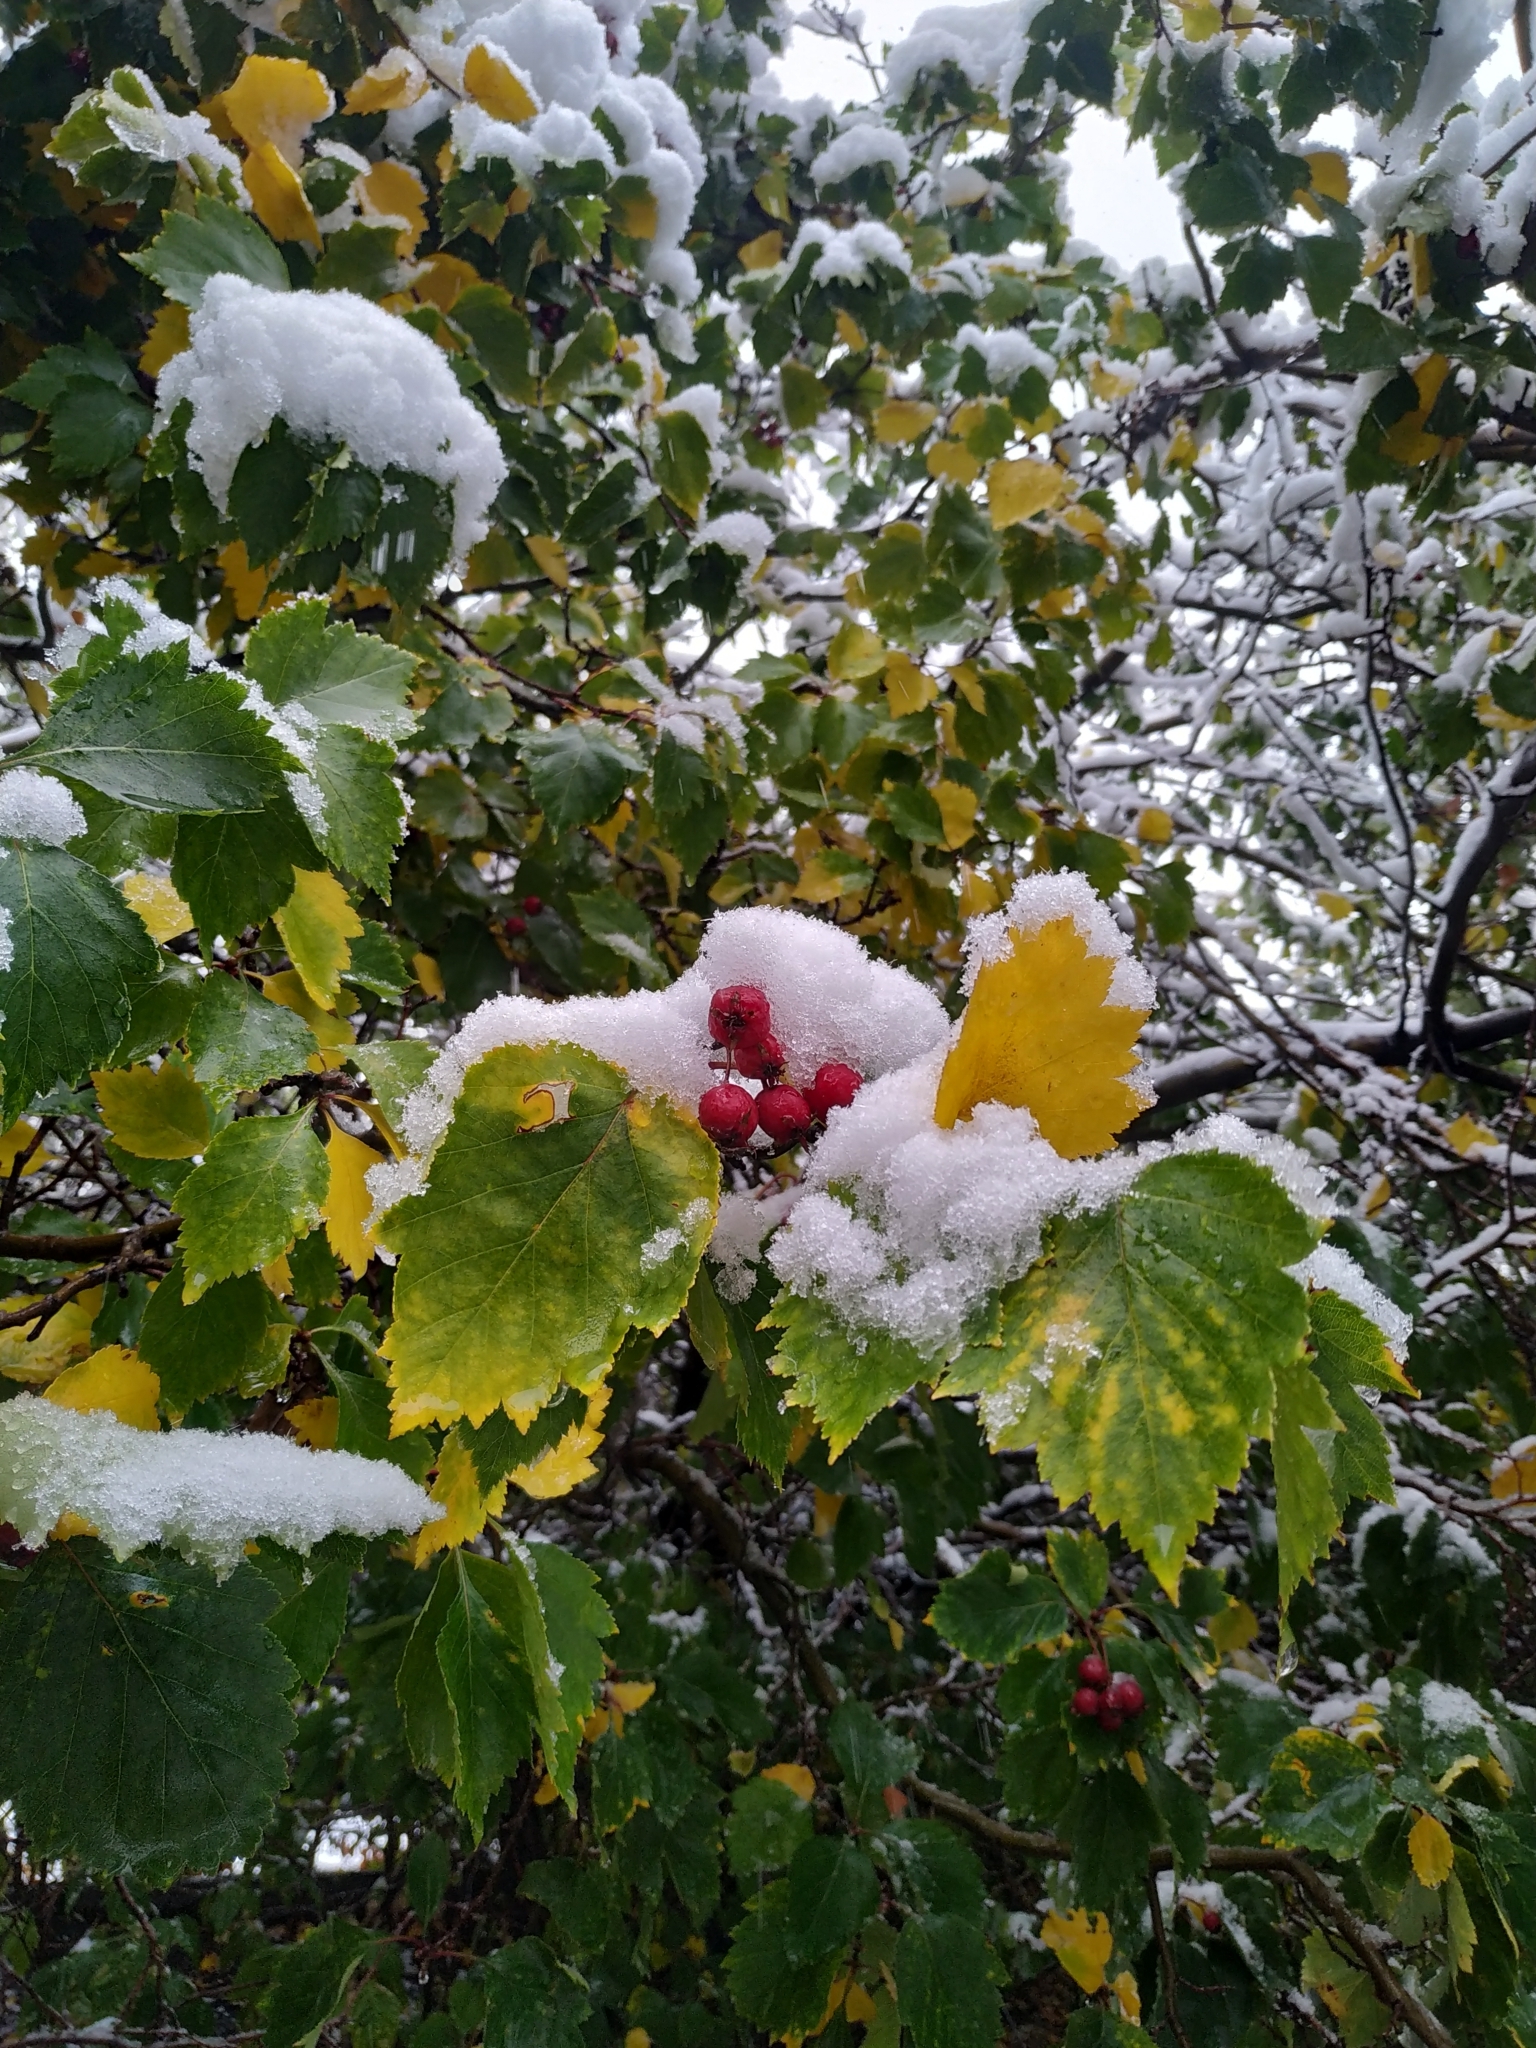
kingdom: Plantae
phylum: Tracheophyta
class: Magnoliopsida
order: Rosales
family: Rosaceae
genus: Crataegus
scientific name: Crataegus sanguinea
